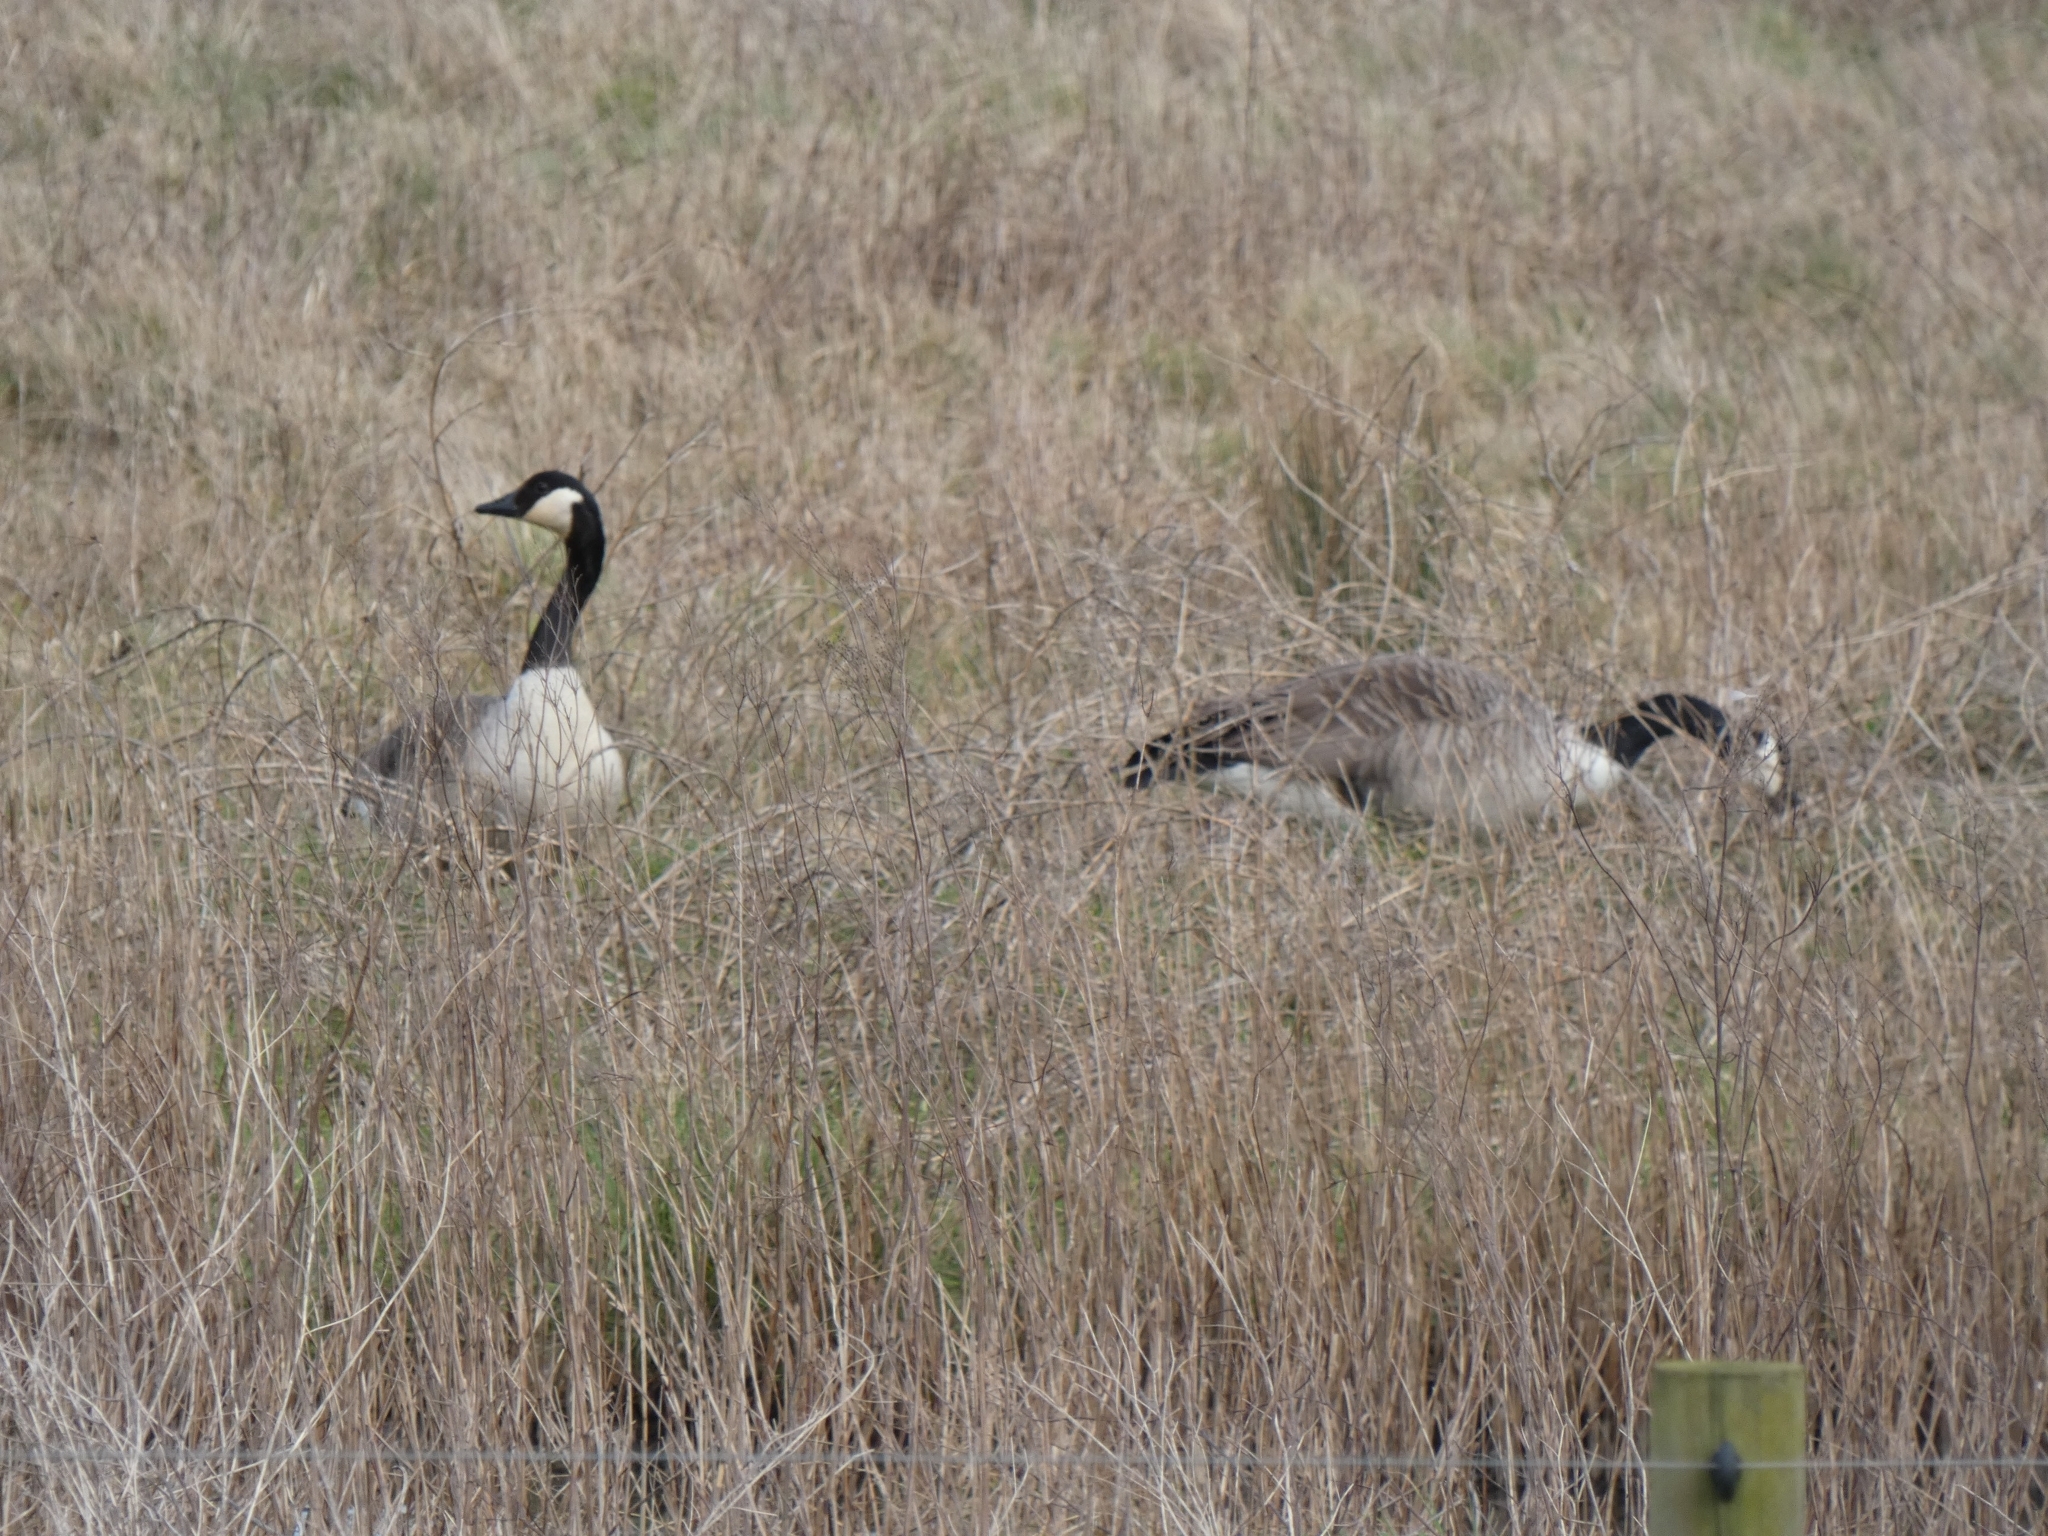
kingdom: Animalia
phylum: Chordata
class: Aves
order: Anseriformes
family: Anatidae
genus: Branta
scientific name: Branta canadensis
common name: Canada goose
